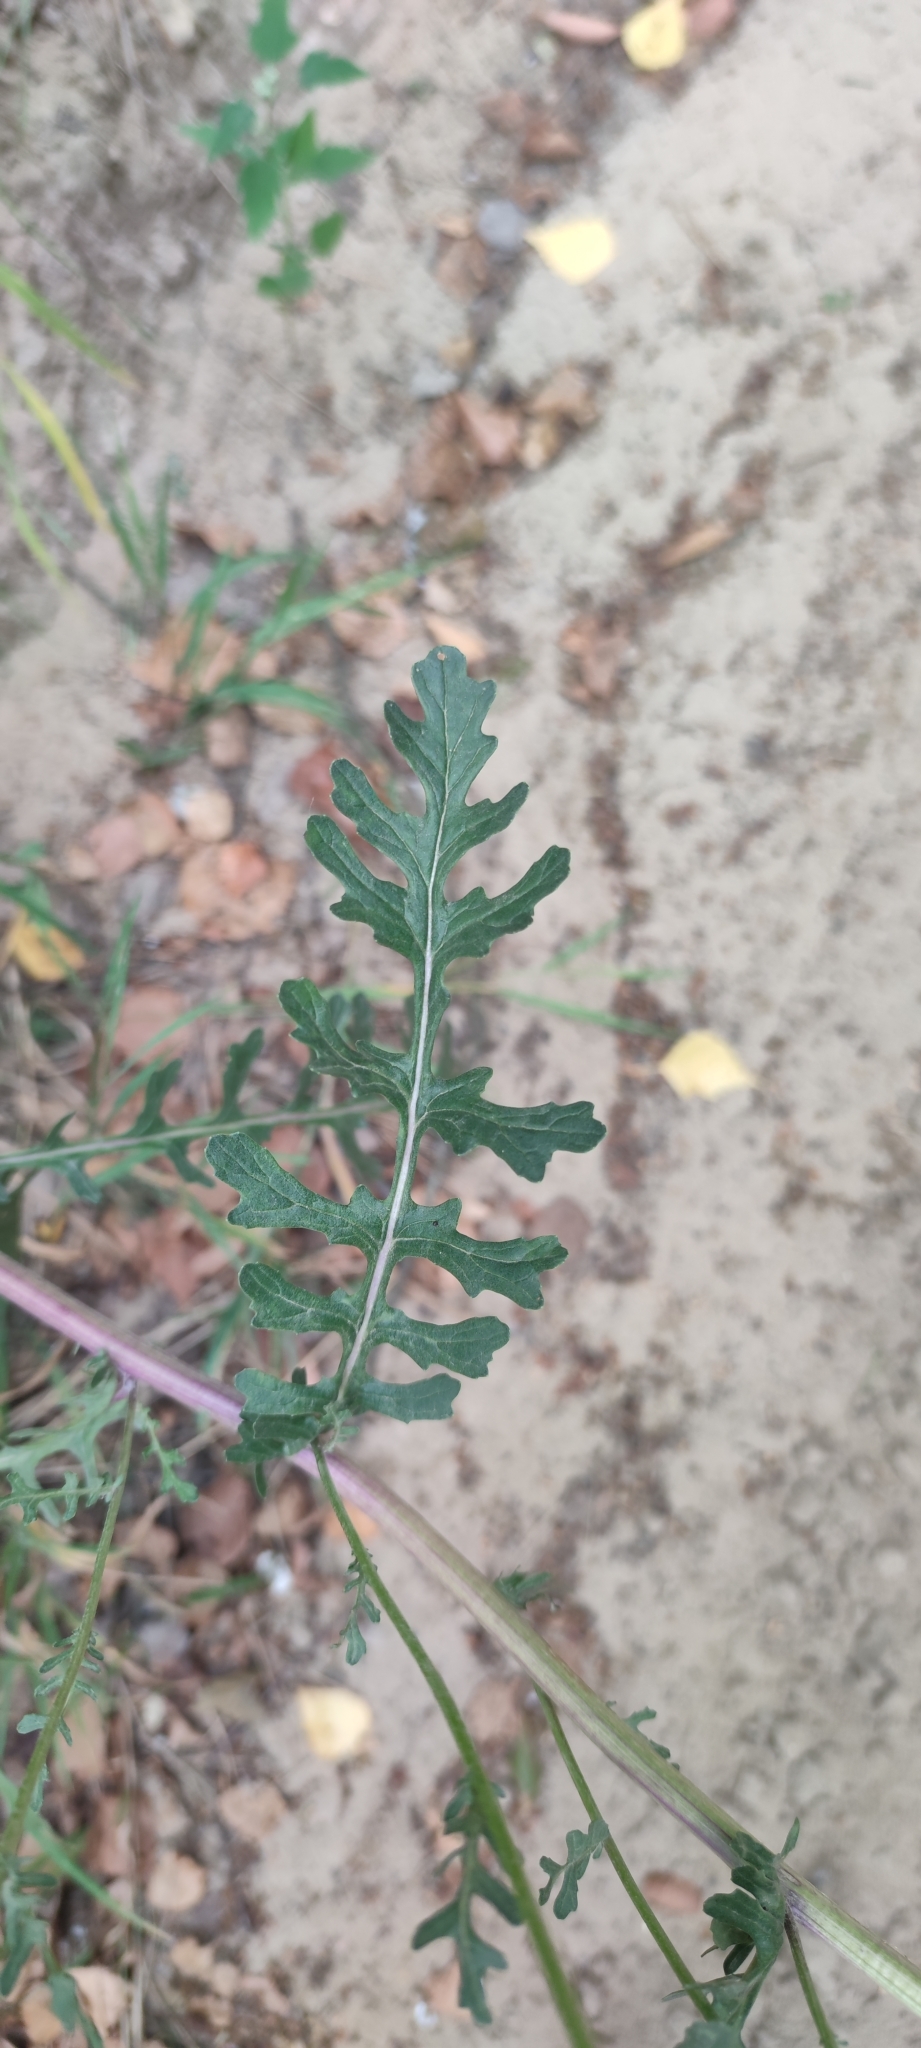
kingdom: Plantae
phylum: Tracheophyta
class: Magnoliopsida
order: Asterales
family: Asteraceae
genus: Jacobaea
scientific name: Jacobaea vulgaris
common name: Stinking willie
